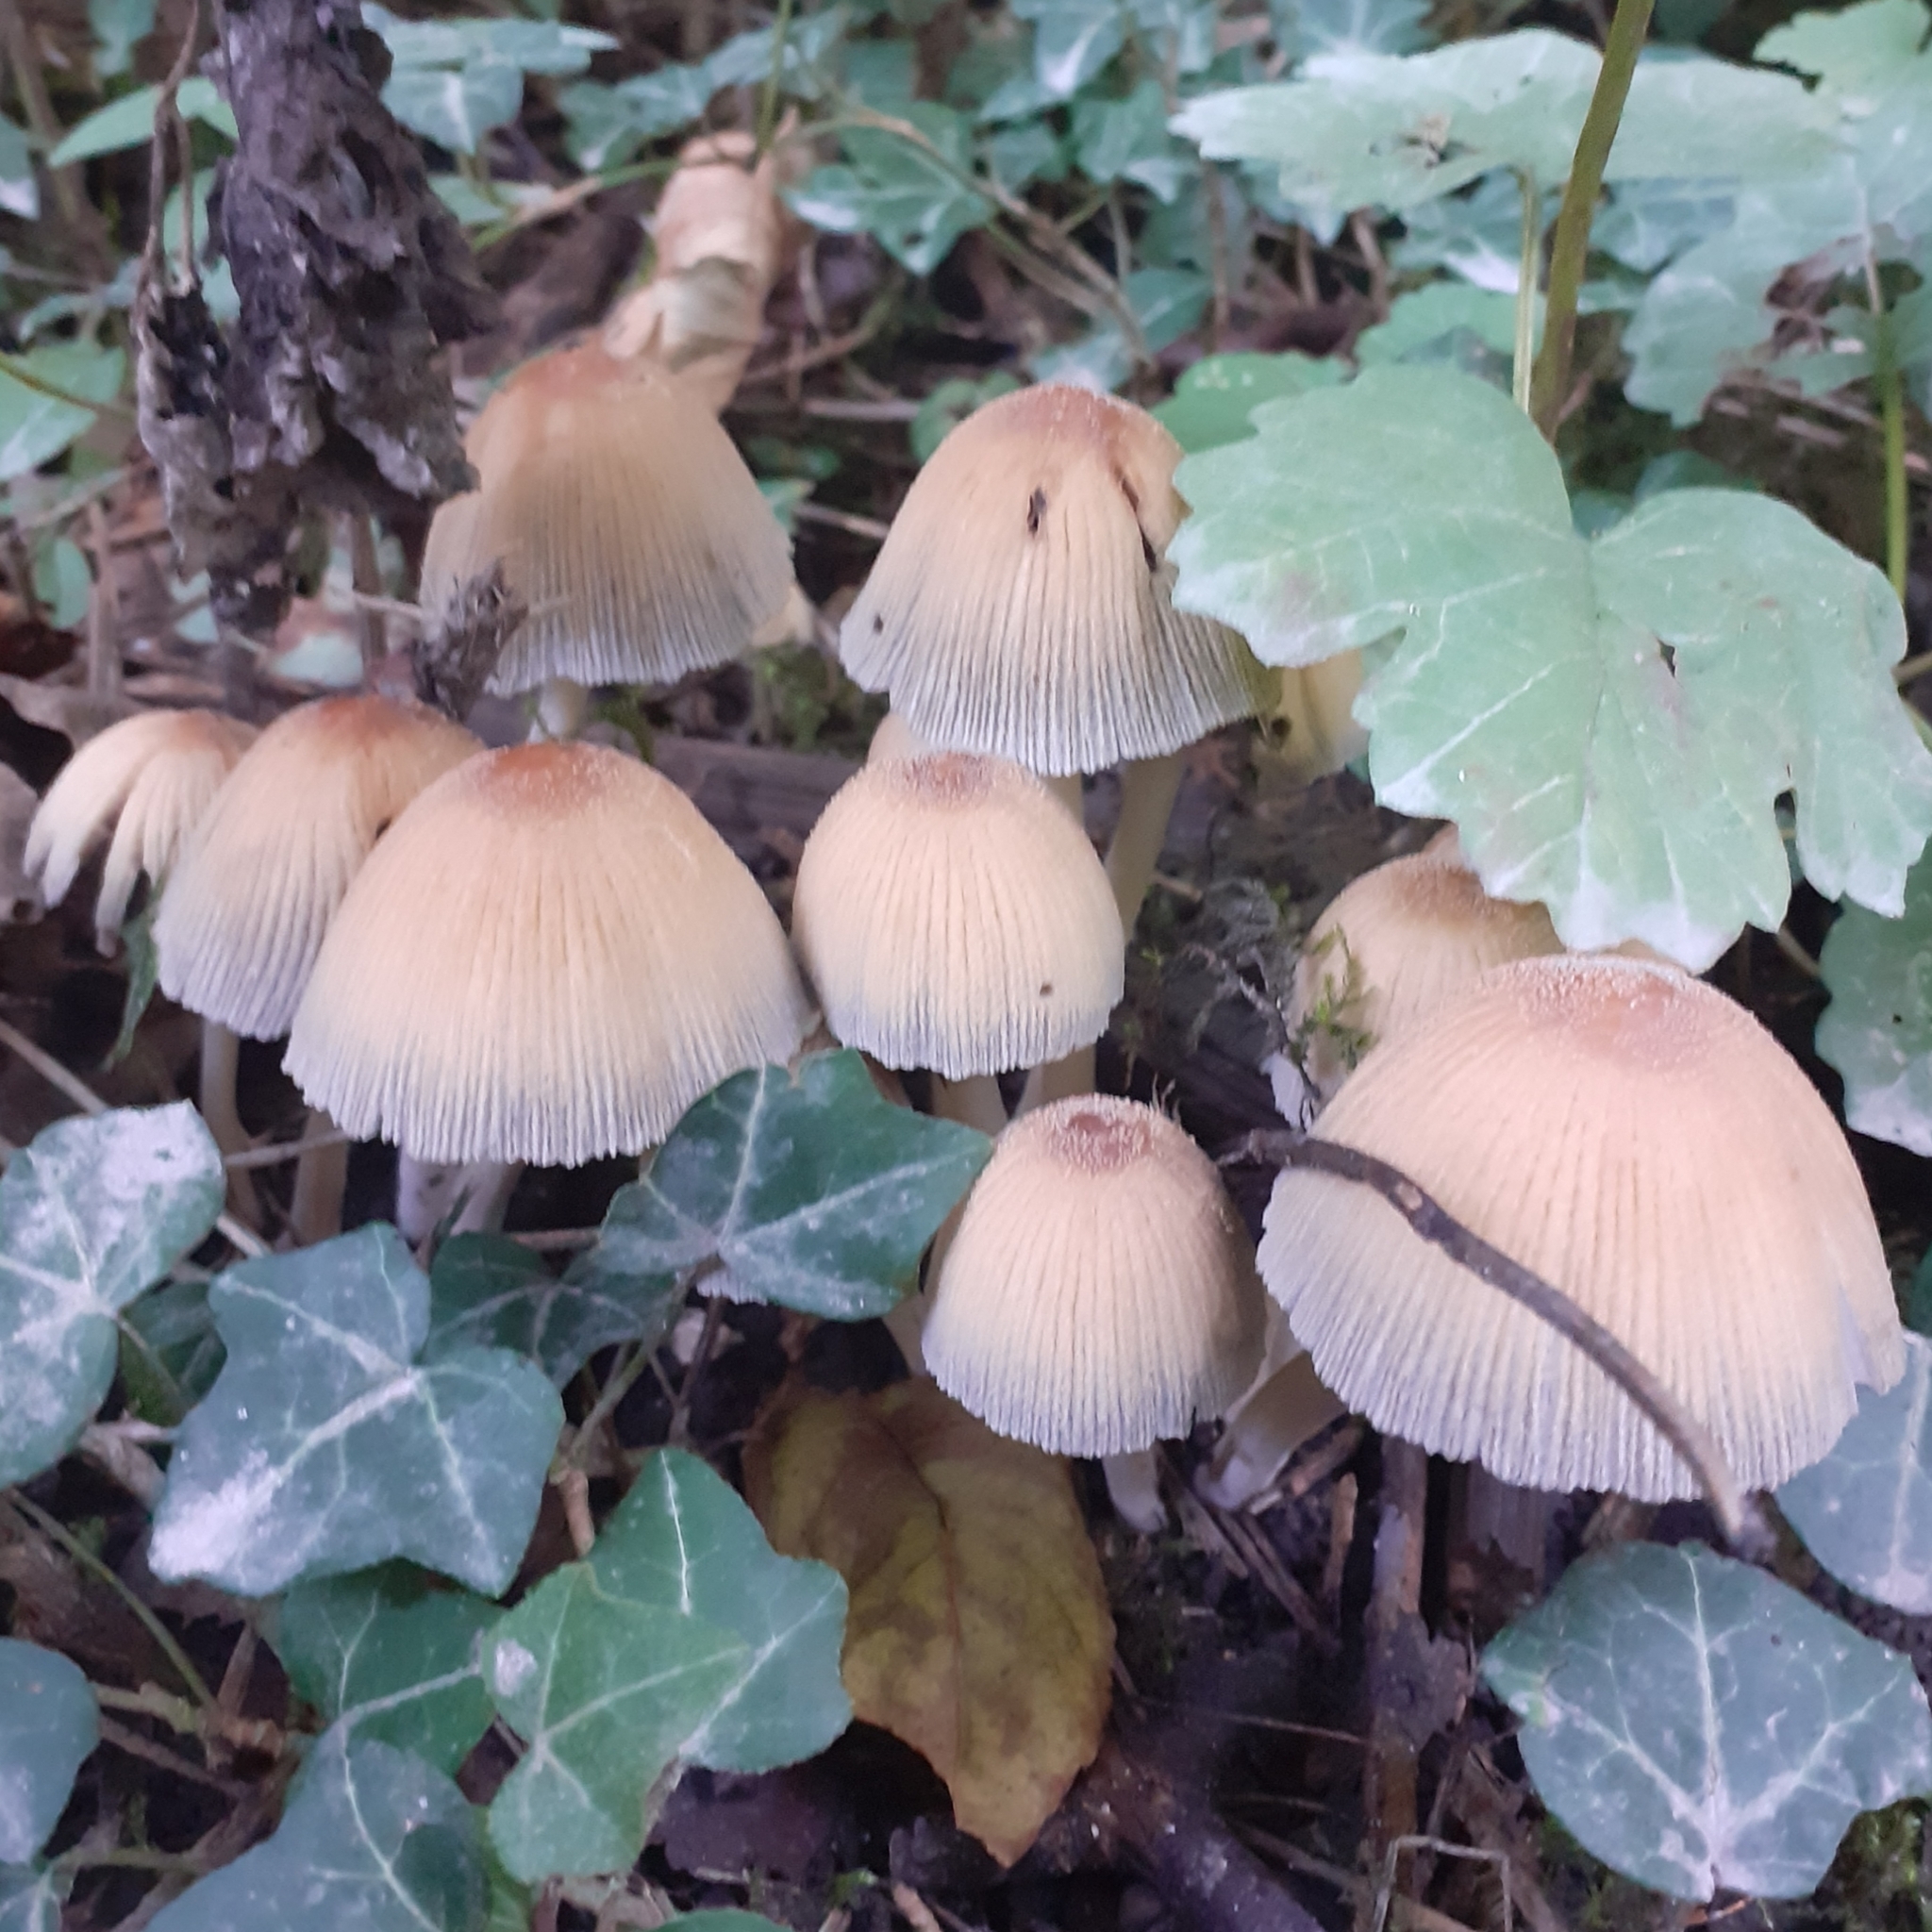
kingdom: Fungi
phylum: Basidiomycota
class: Agaricomycetes
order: Agaricales
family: Psathyrellaceae
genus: Coprinellus
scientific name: Coprinellus micaceus
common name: Glistening ink-cap
